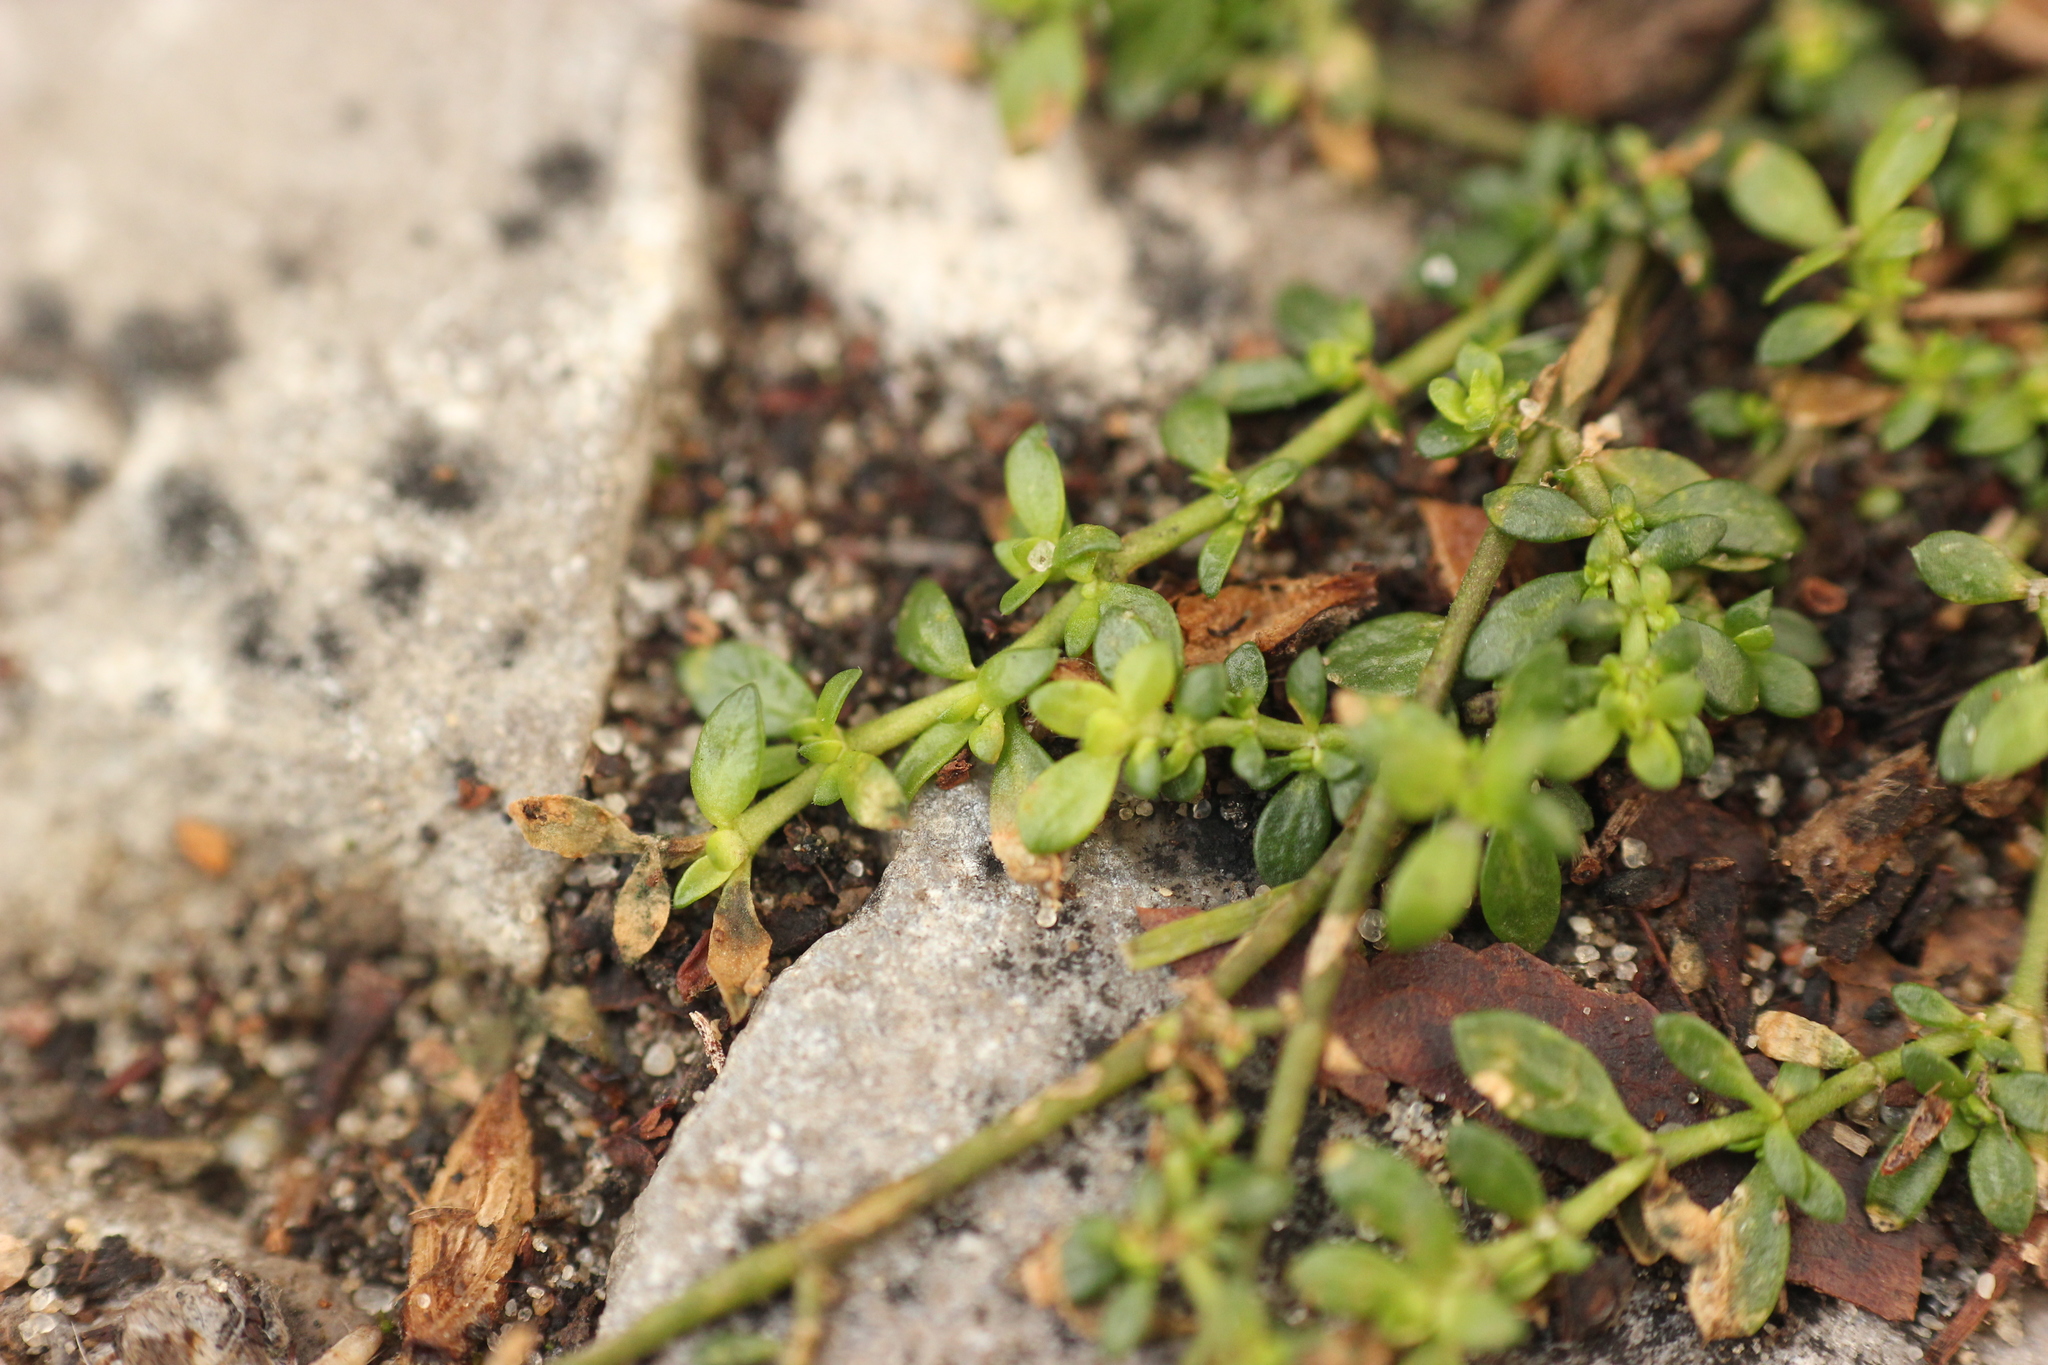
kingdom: Plantae
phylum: Tracheophyta
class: Magnoliopsida
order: Caryophyllales
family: Caryophyllaceae
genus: Herniaria
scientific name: Herniaria glabra
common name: Smooth rupturewort
